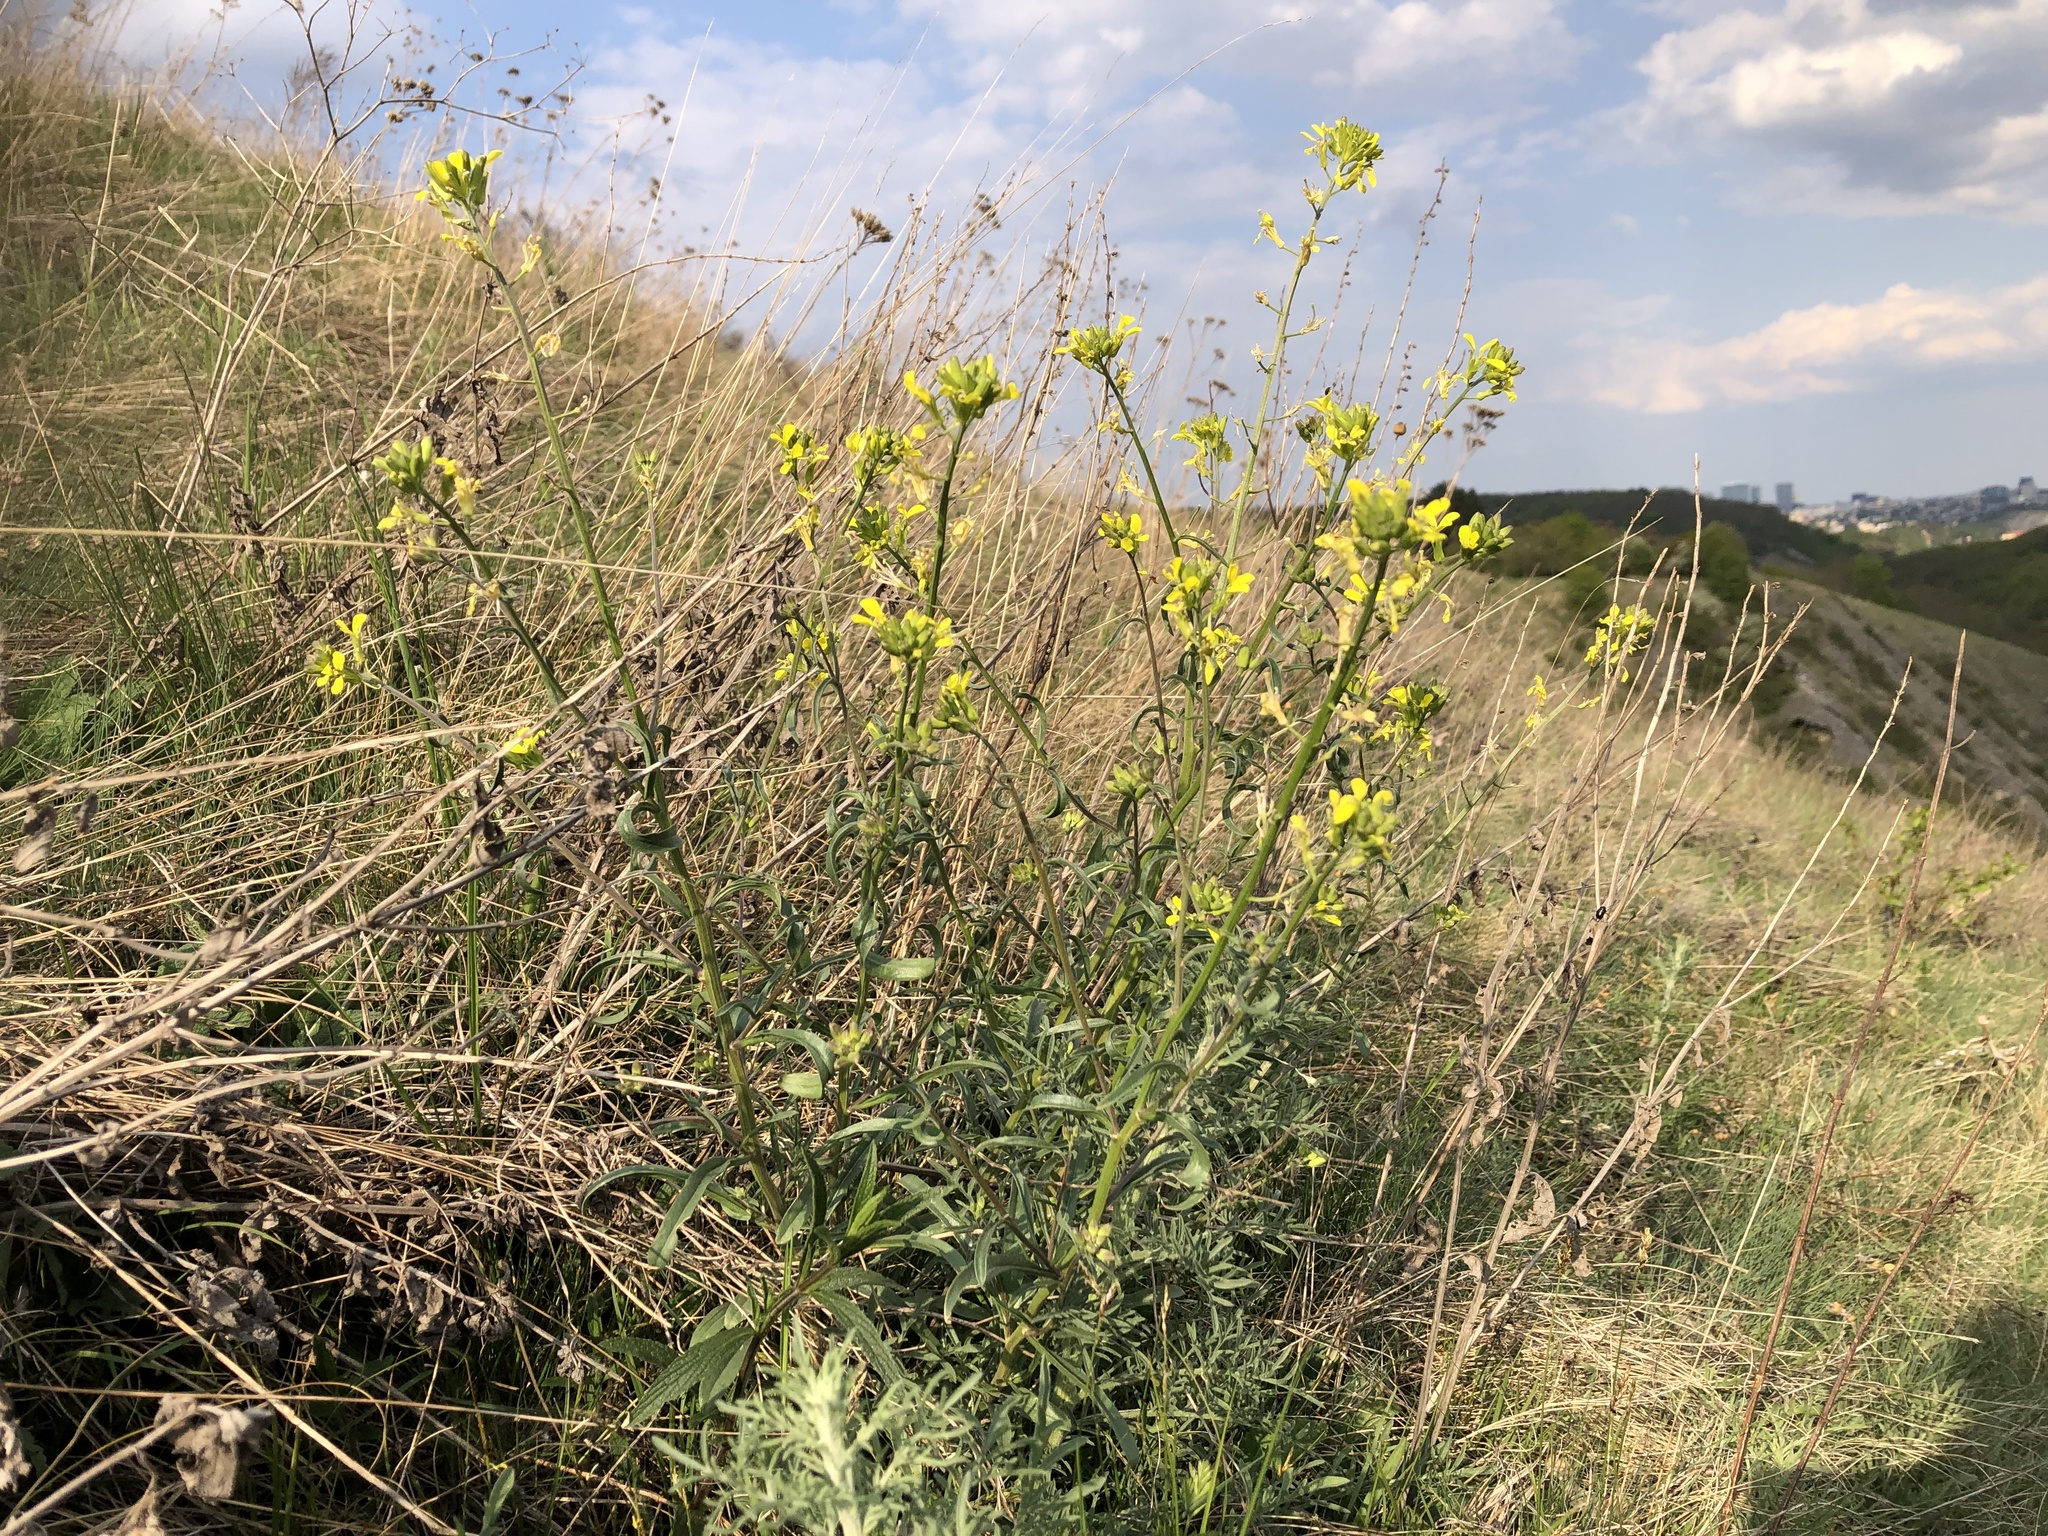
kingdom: Plantae
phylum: Tracheophyta
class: Magnoliopsida
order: Brassicales
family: Brassicaceae
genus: Erysimum
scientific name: Erysimum crepidifolium
